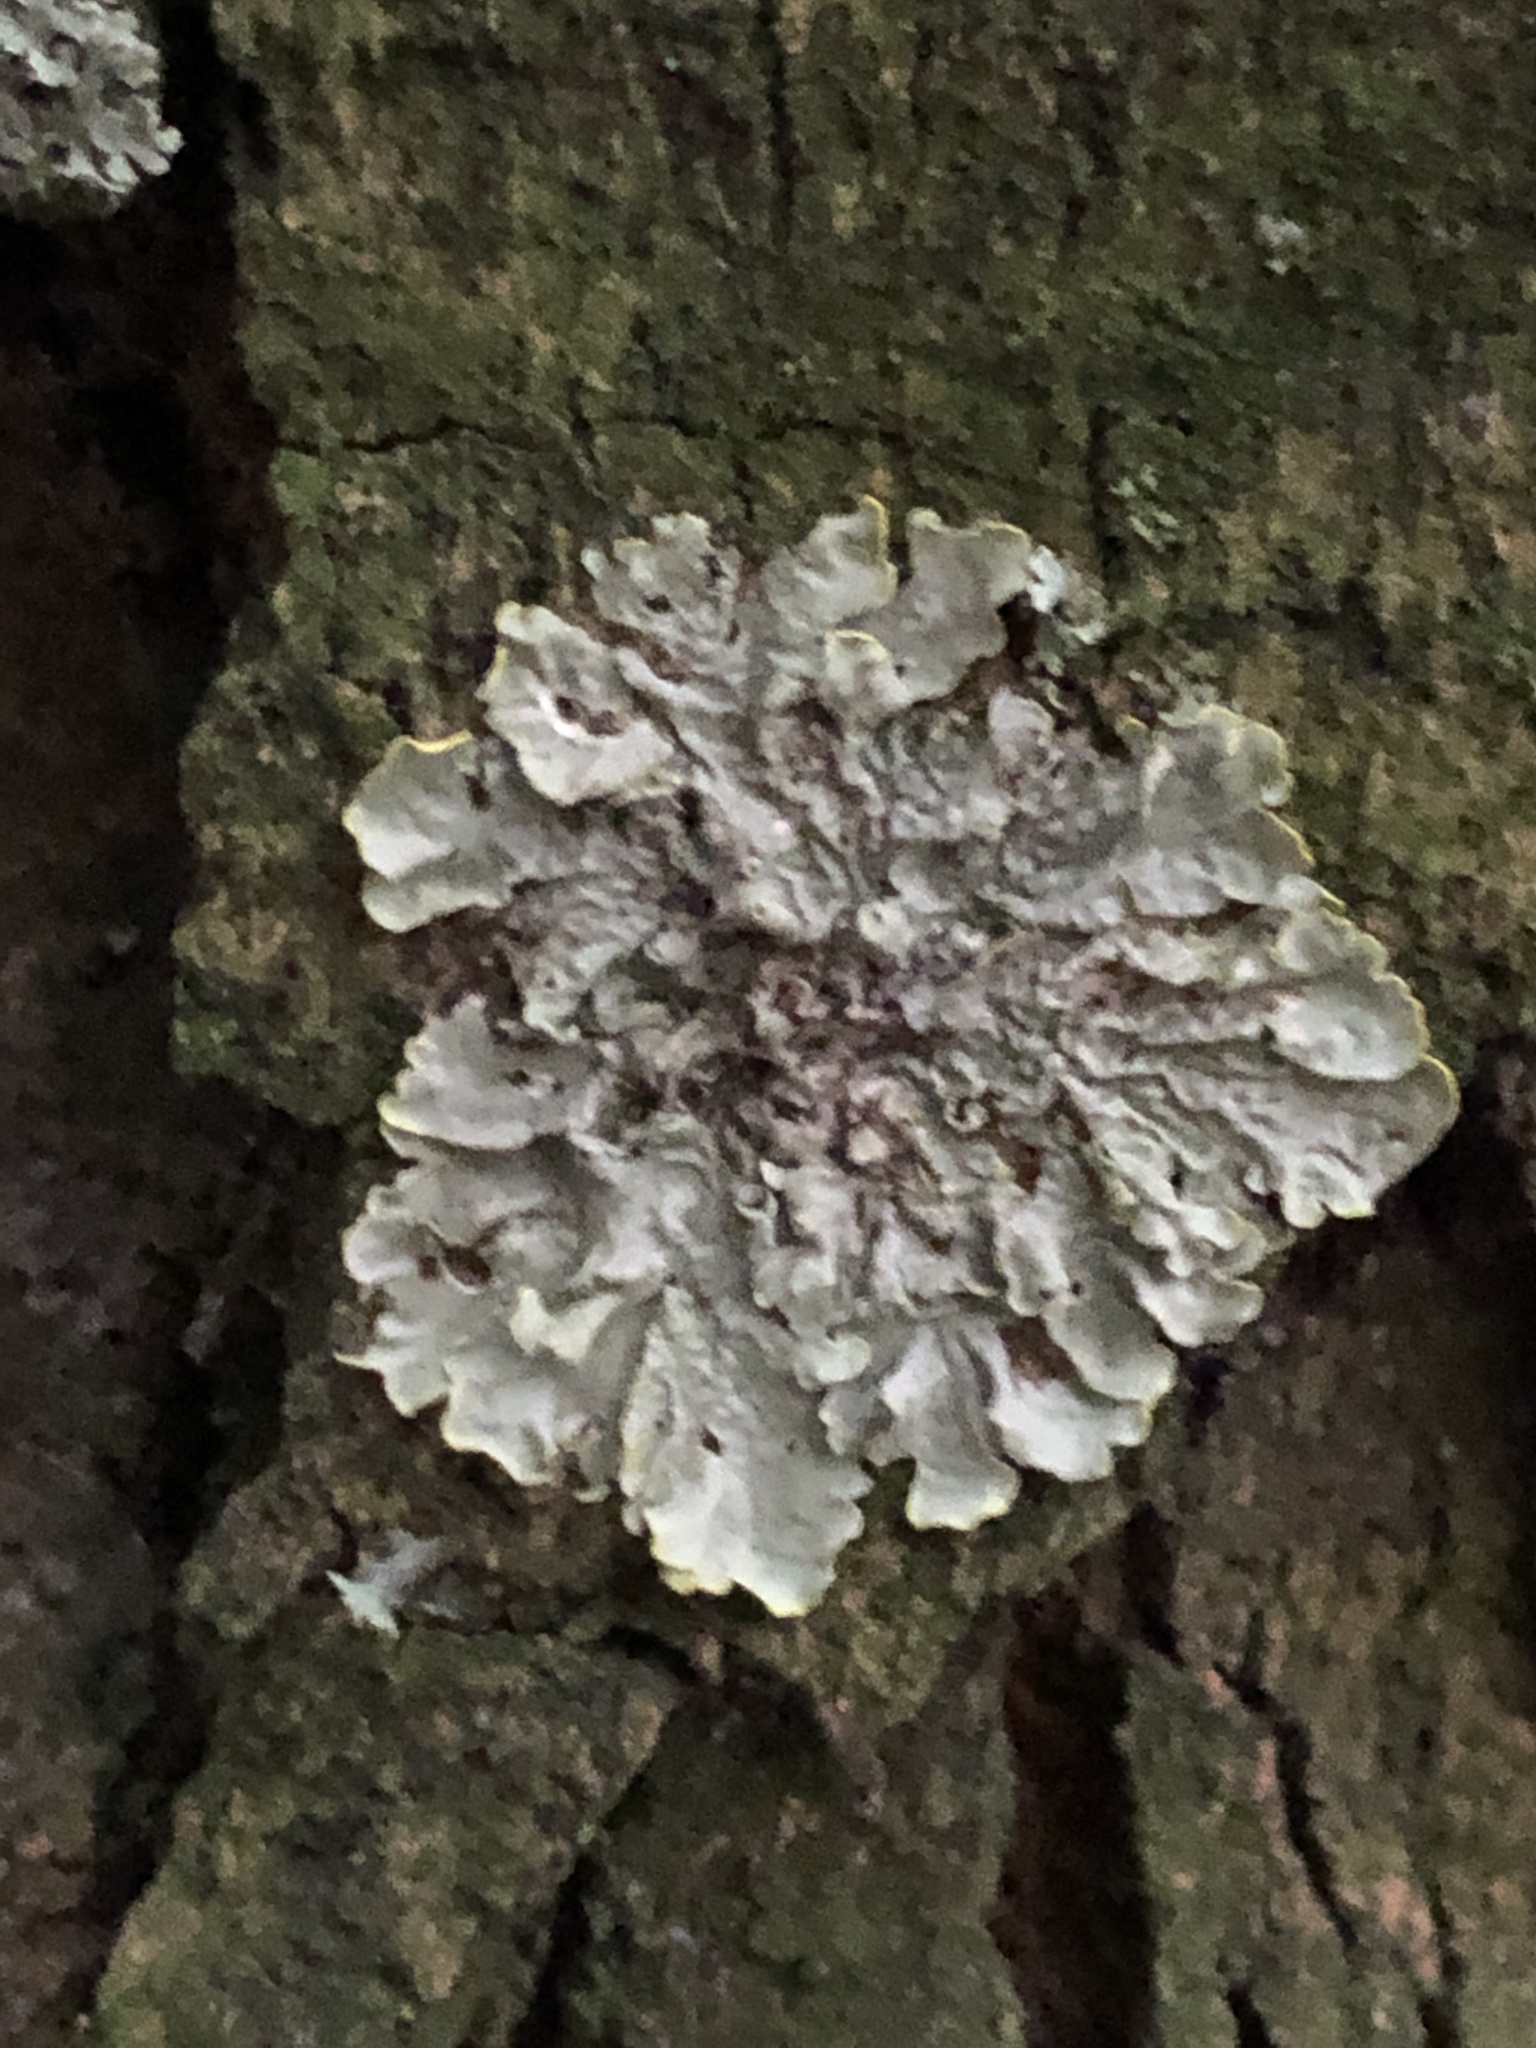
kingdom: Fungi
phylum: Ascomycota
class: Lecanoromycetes
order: Teloschistales
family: Teloschistaceae
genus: Xanthoria
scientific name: Xanthoria parietina
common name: Common orange lichen
